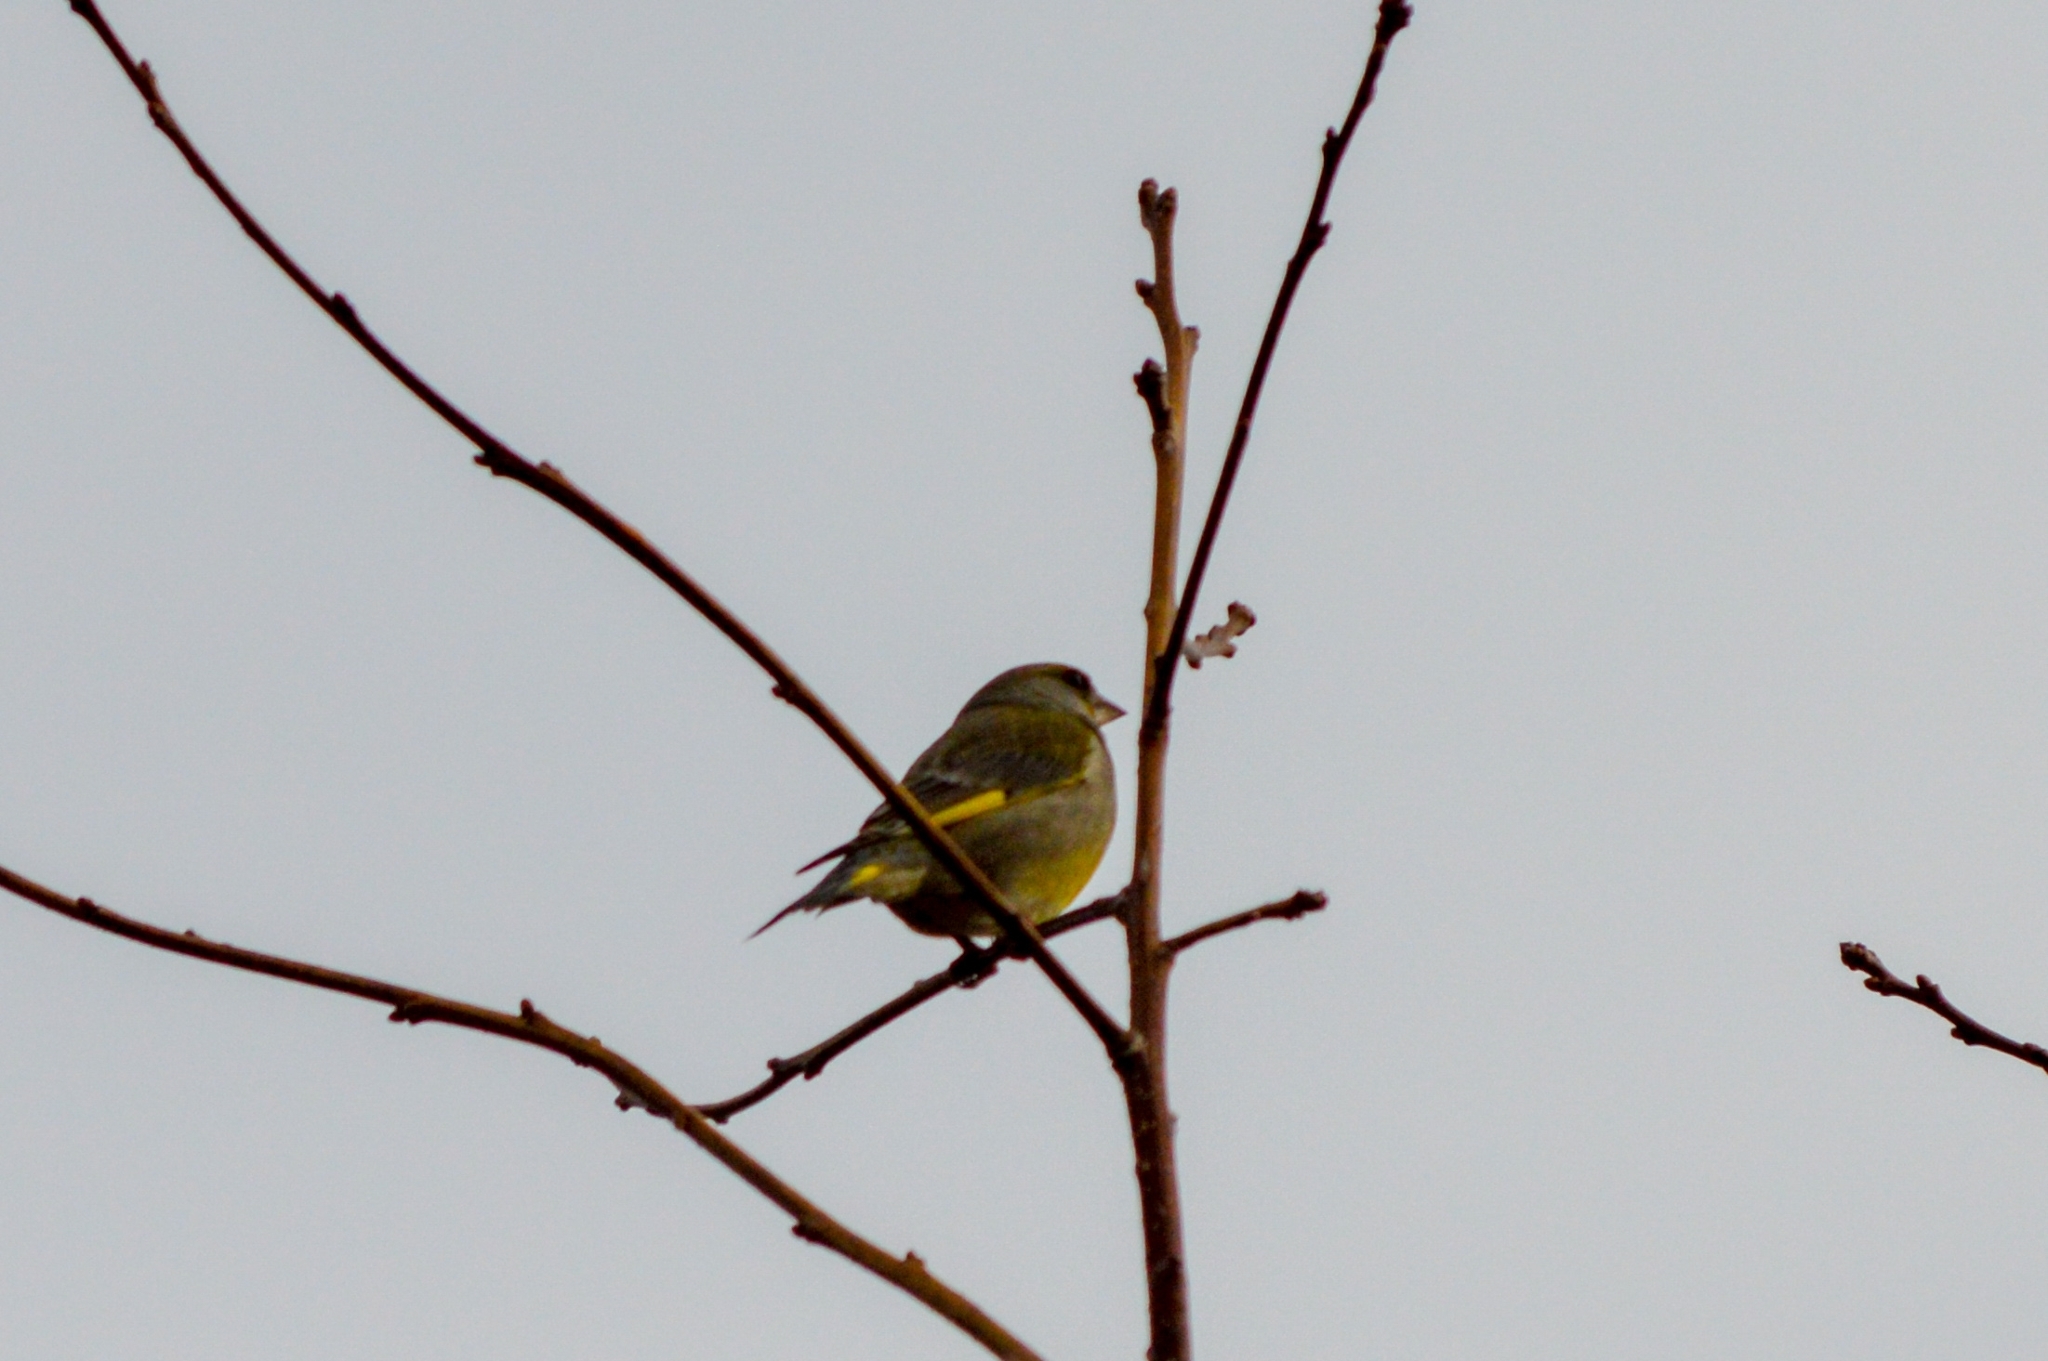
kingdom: Plantae
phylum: Tracheophyta
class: Liliopsida
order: Poales
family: Poaceae
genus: Chloris
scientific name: Chloris chloris
